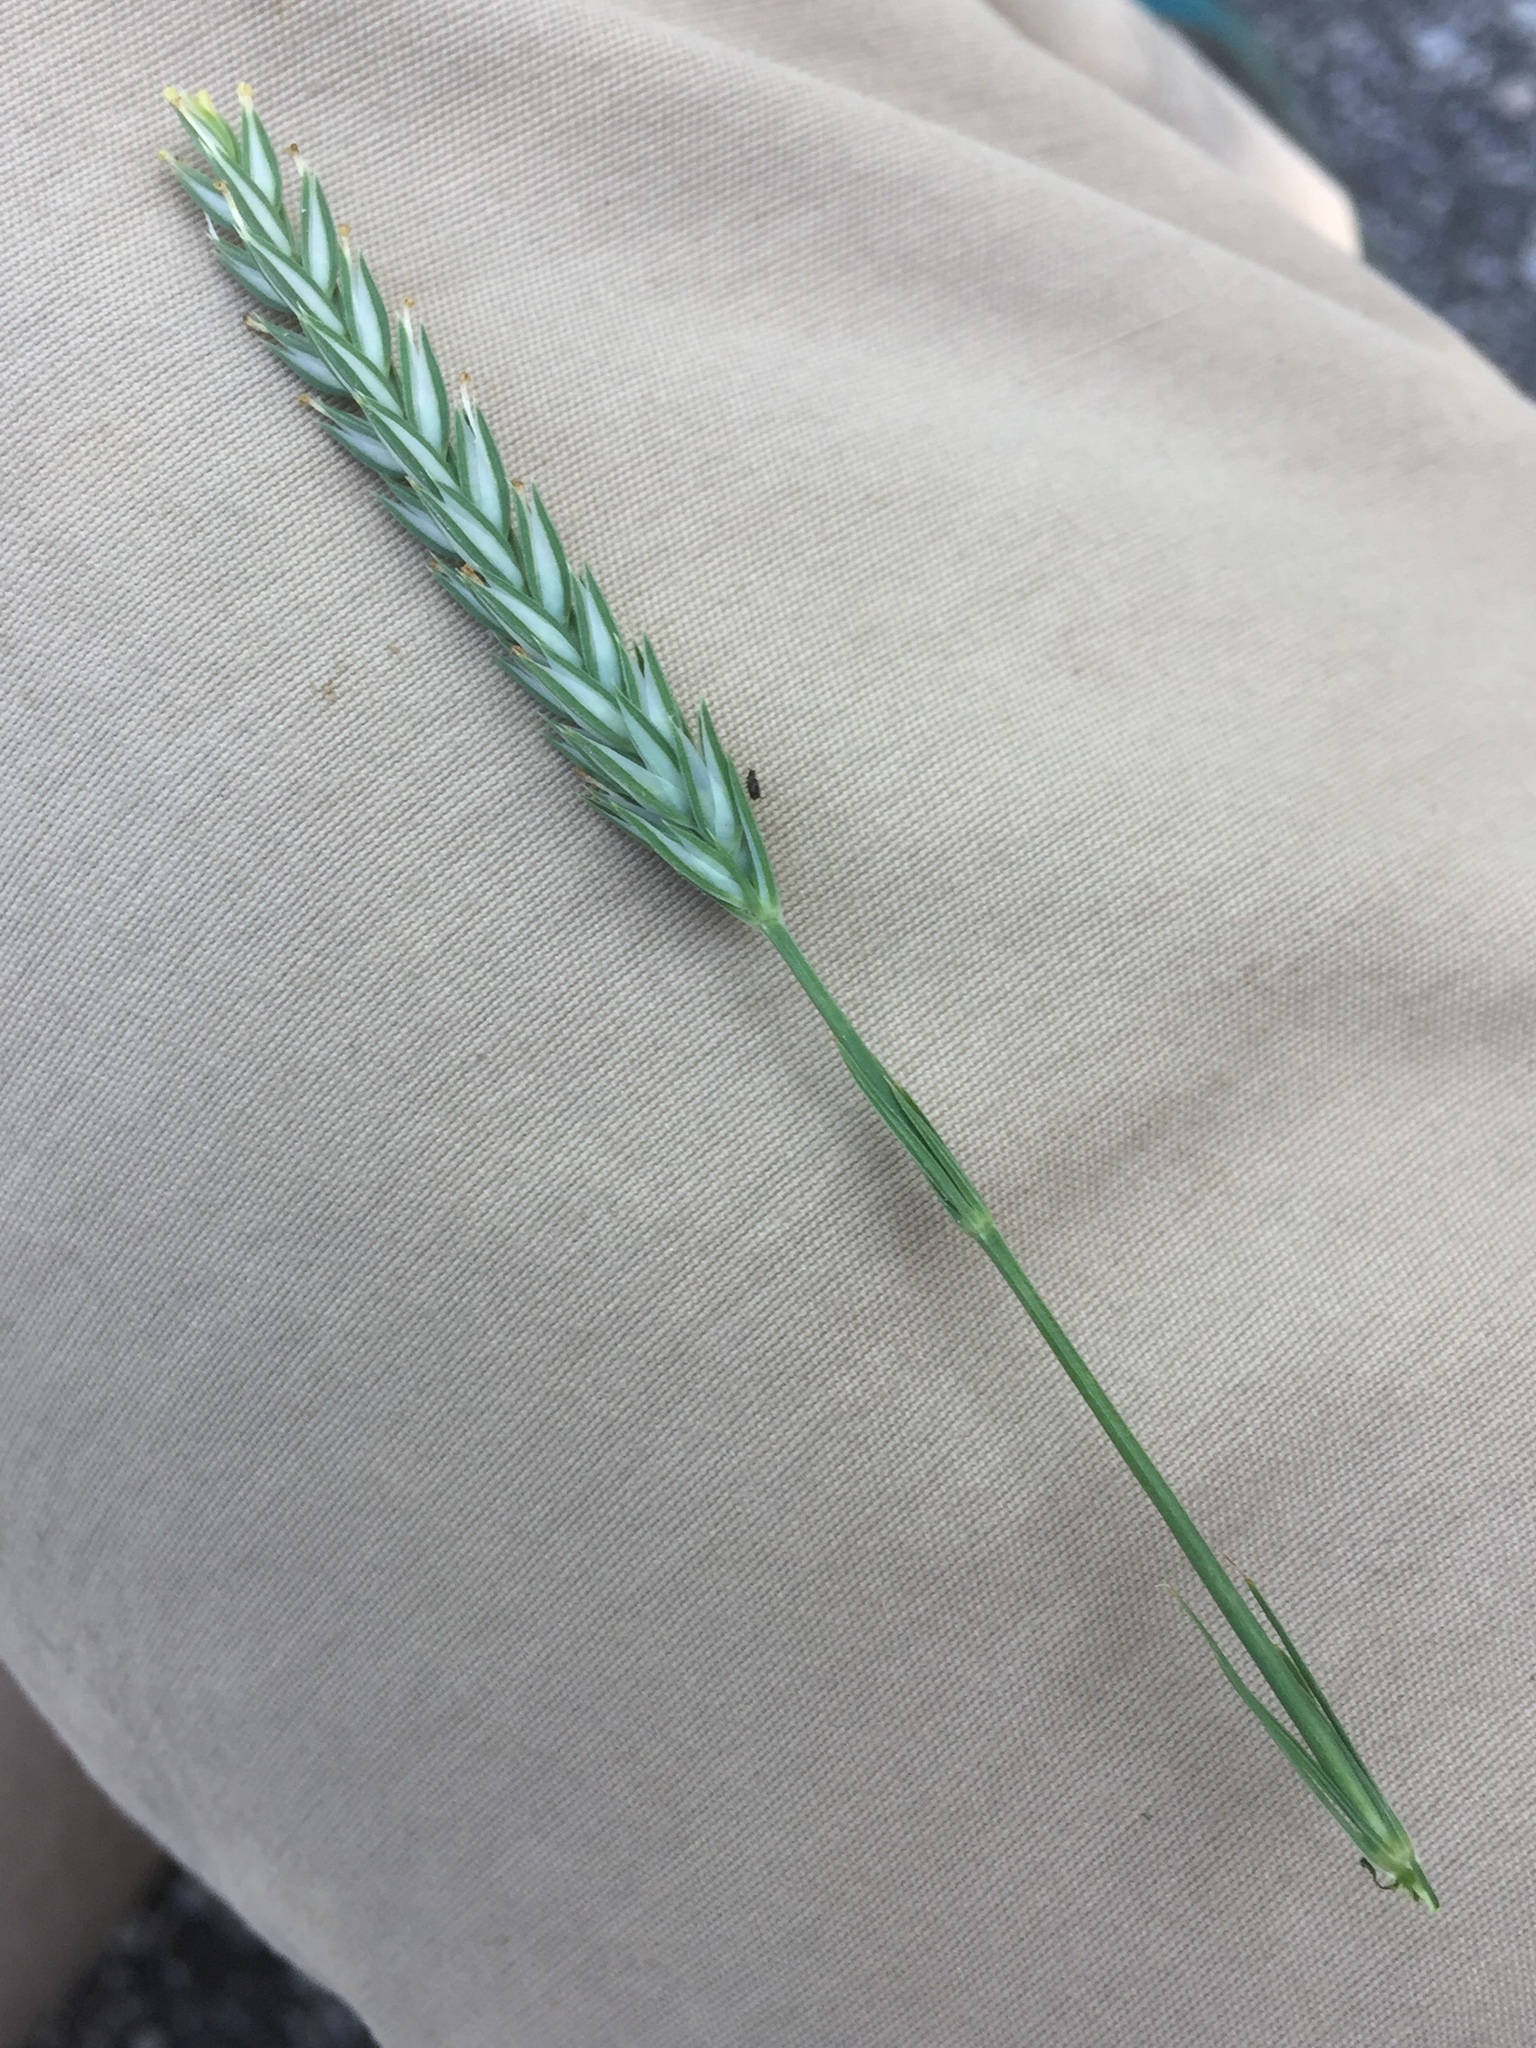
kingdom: Plantae
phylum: Tracheophyta
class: Magnoliopsida
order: Gentianales
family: Rubiaceae
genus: Crucianella
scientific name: Crucianella angustifolia
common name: Narrowleaf crucianella
